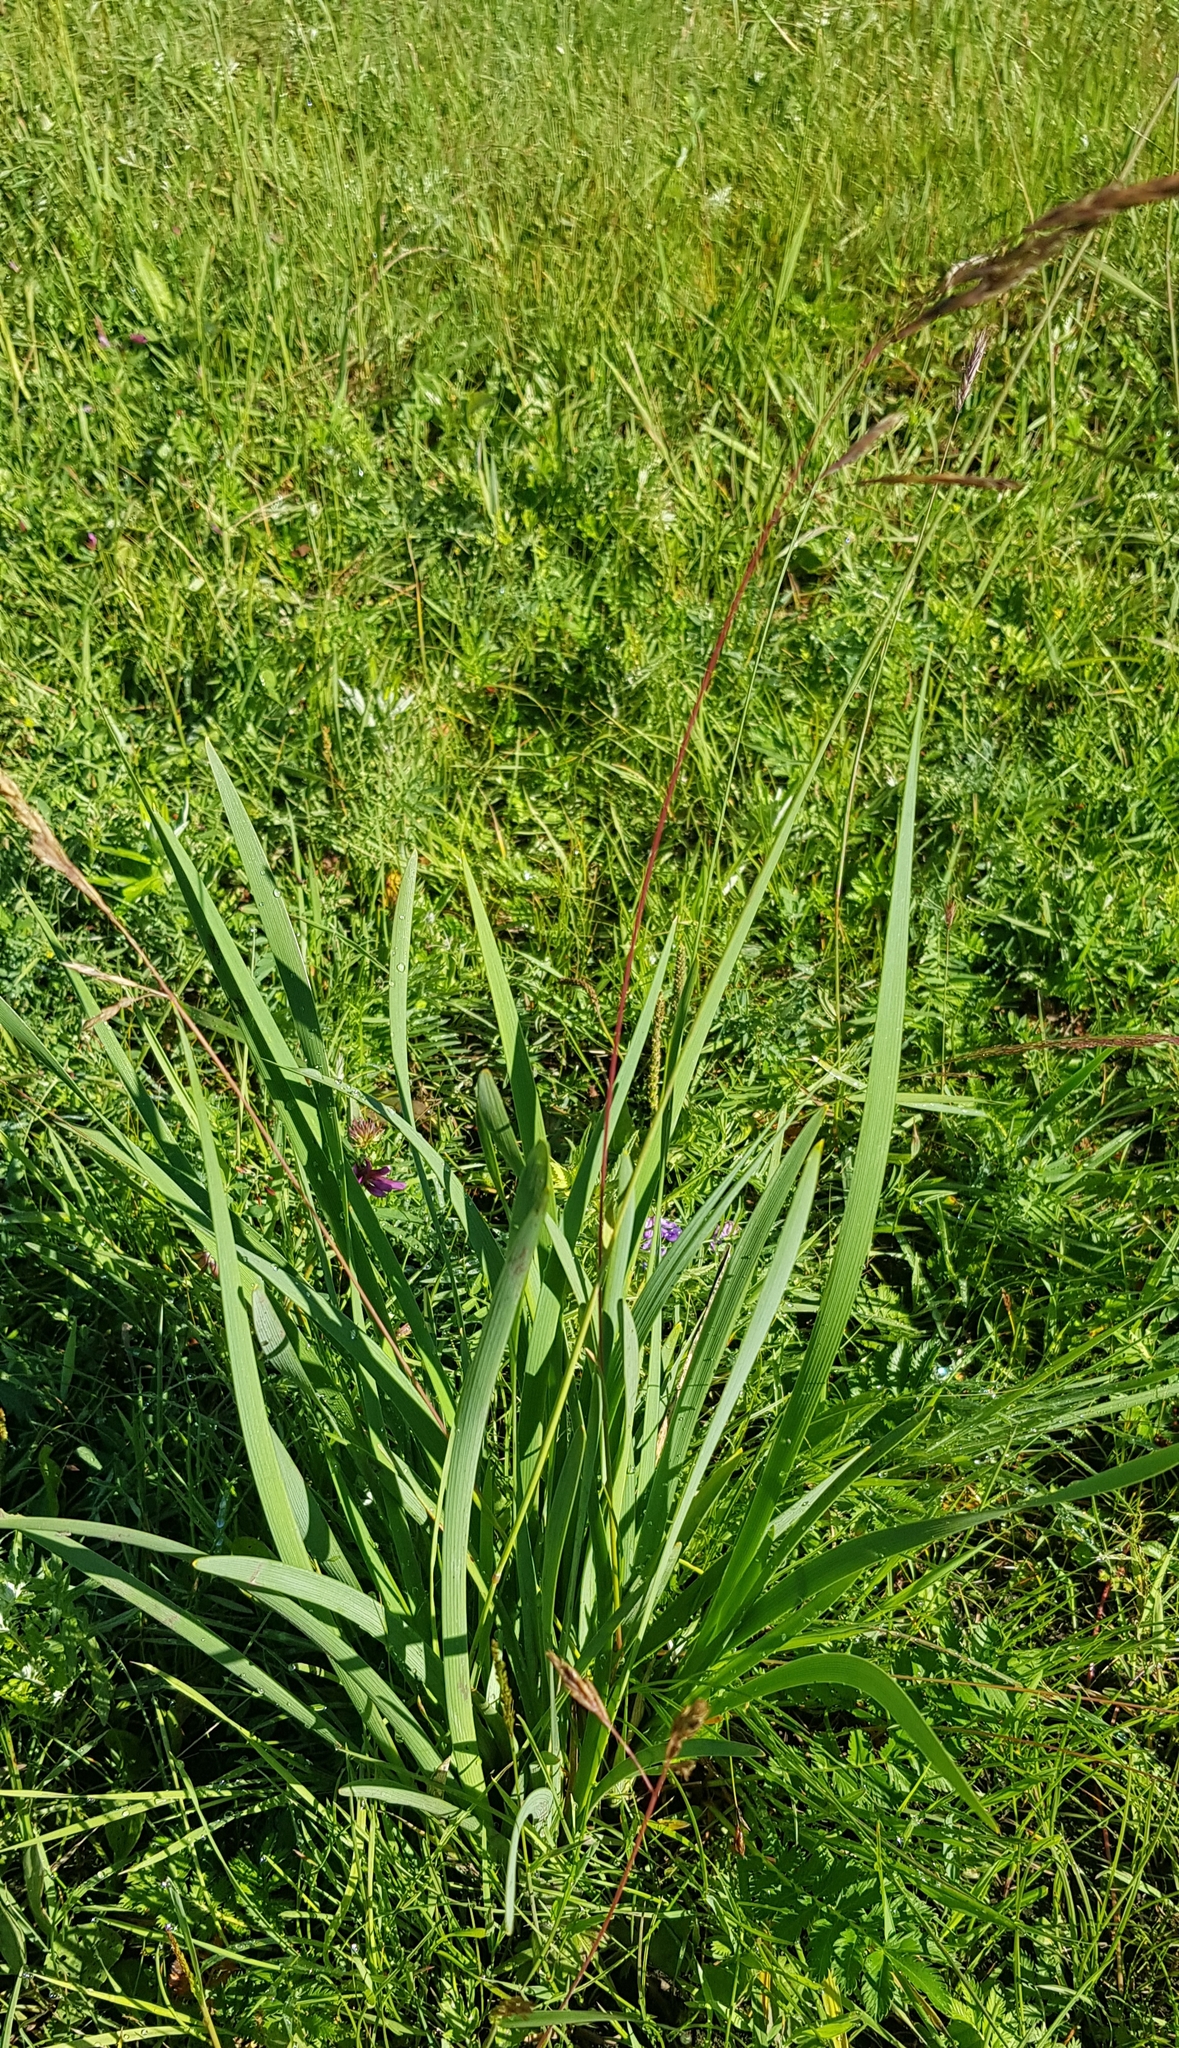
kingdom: Plantae
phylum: Tracheophyta
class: Liliopsida
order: Asparagales
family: Iridaceae
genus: Iris
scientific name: Iris lactea
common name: White-flower chinese iris
